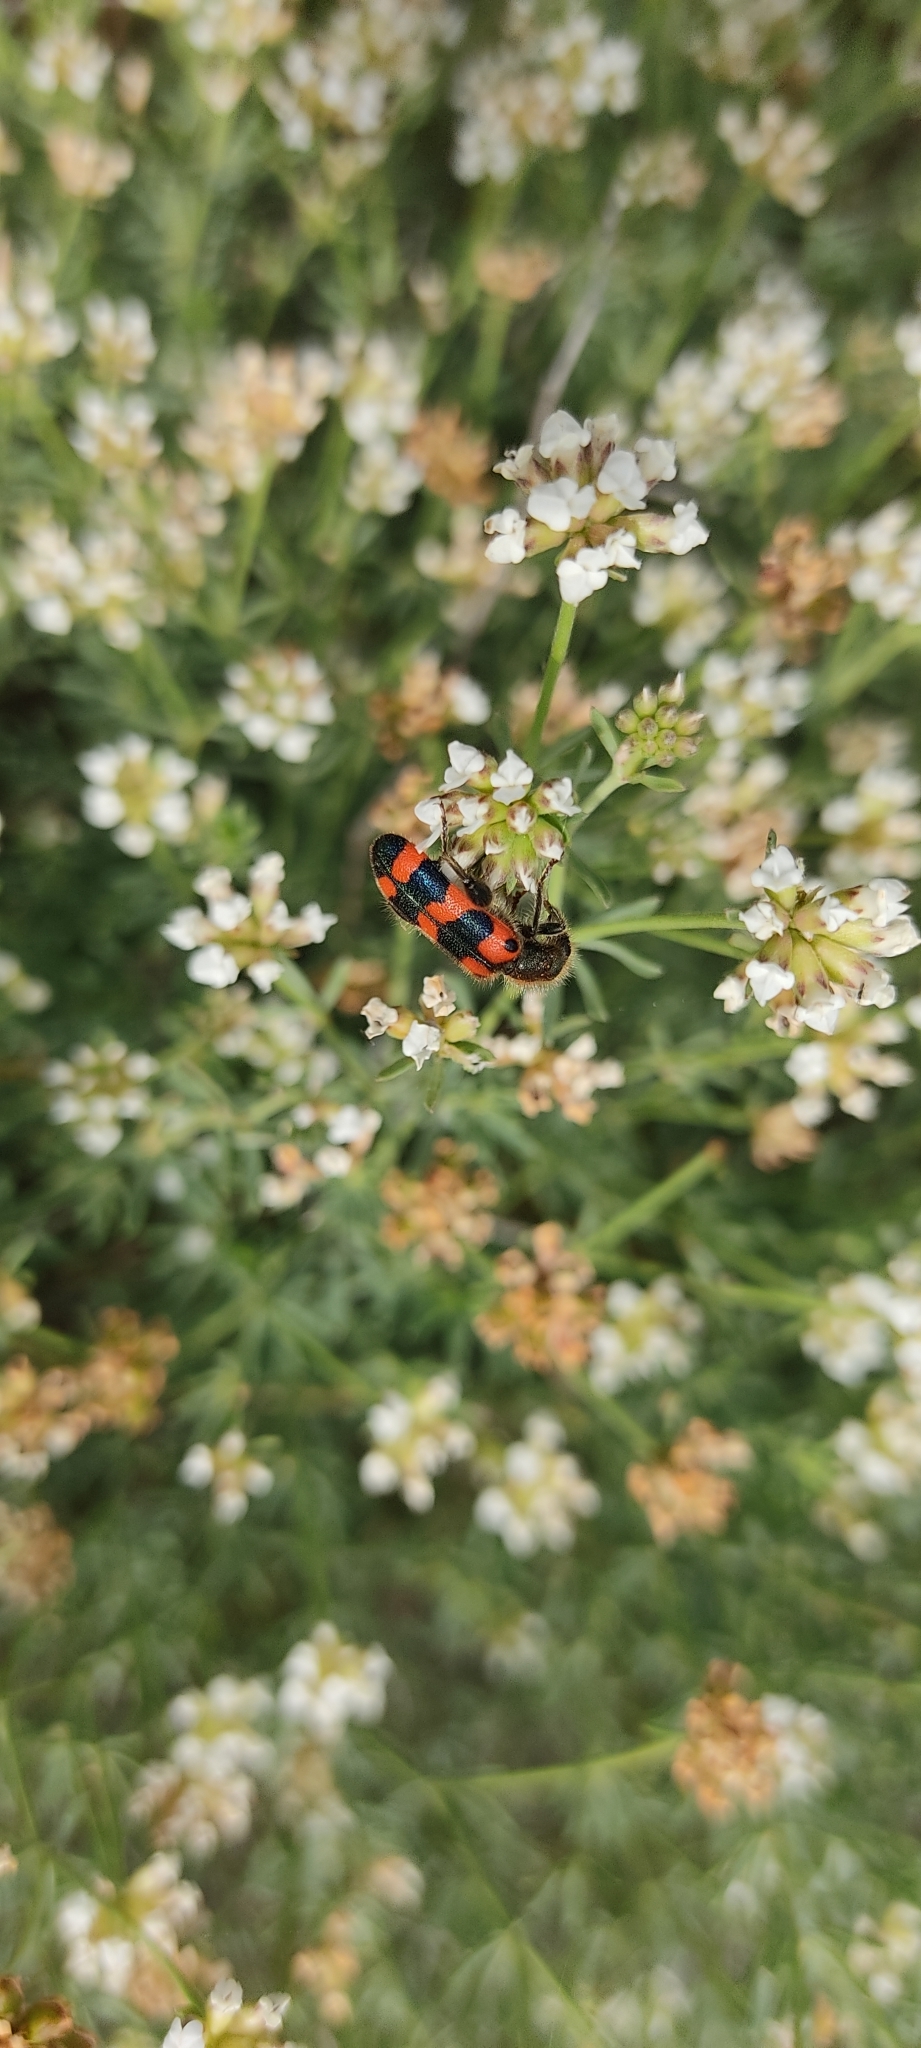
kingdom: Animalia
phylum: Arthropoda
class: Insecta
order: Coleoptera
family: Cleridae
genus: Trichodes
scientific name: Trichodes leucopsideus
